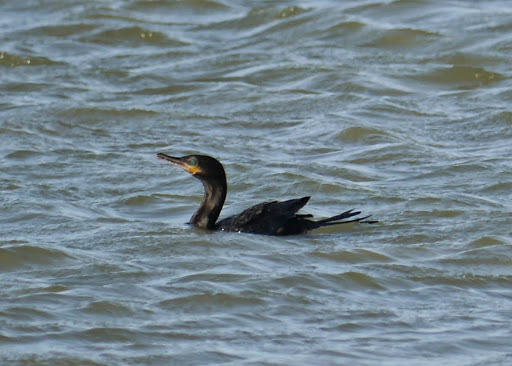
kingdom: Animalia
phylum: Chordata
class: Aves
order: Suliformes
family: Phalacrocoracidae
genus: Phalacrocorax
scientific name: Phalacrocorax brasilianus
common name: Neotropic cormorant
